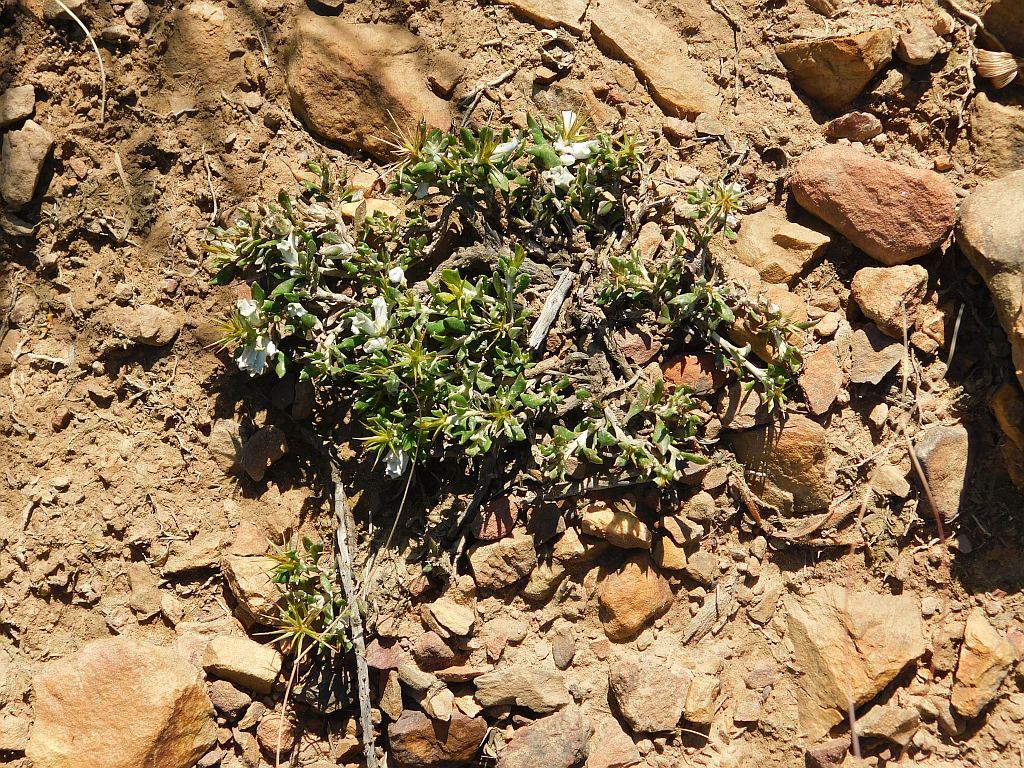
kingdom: Plantae
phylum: Tracheophyta
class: Magnoliopsida
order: Asterales
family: Asteraceae
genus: Macledium
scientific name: Macledium spinosum
